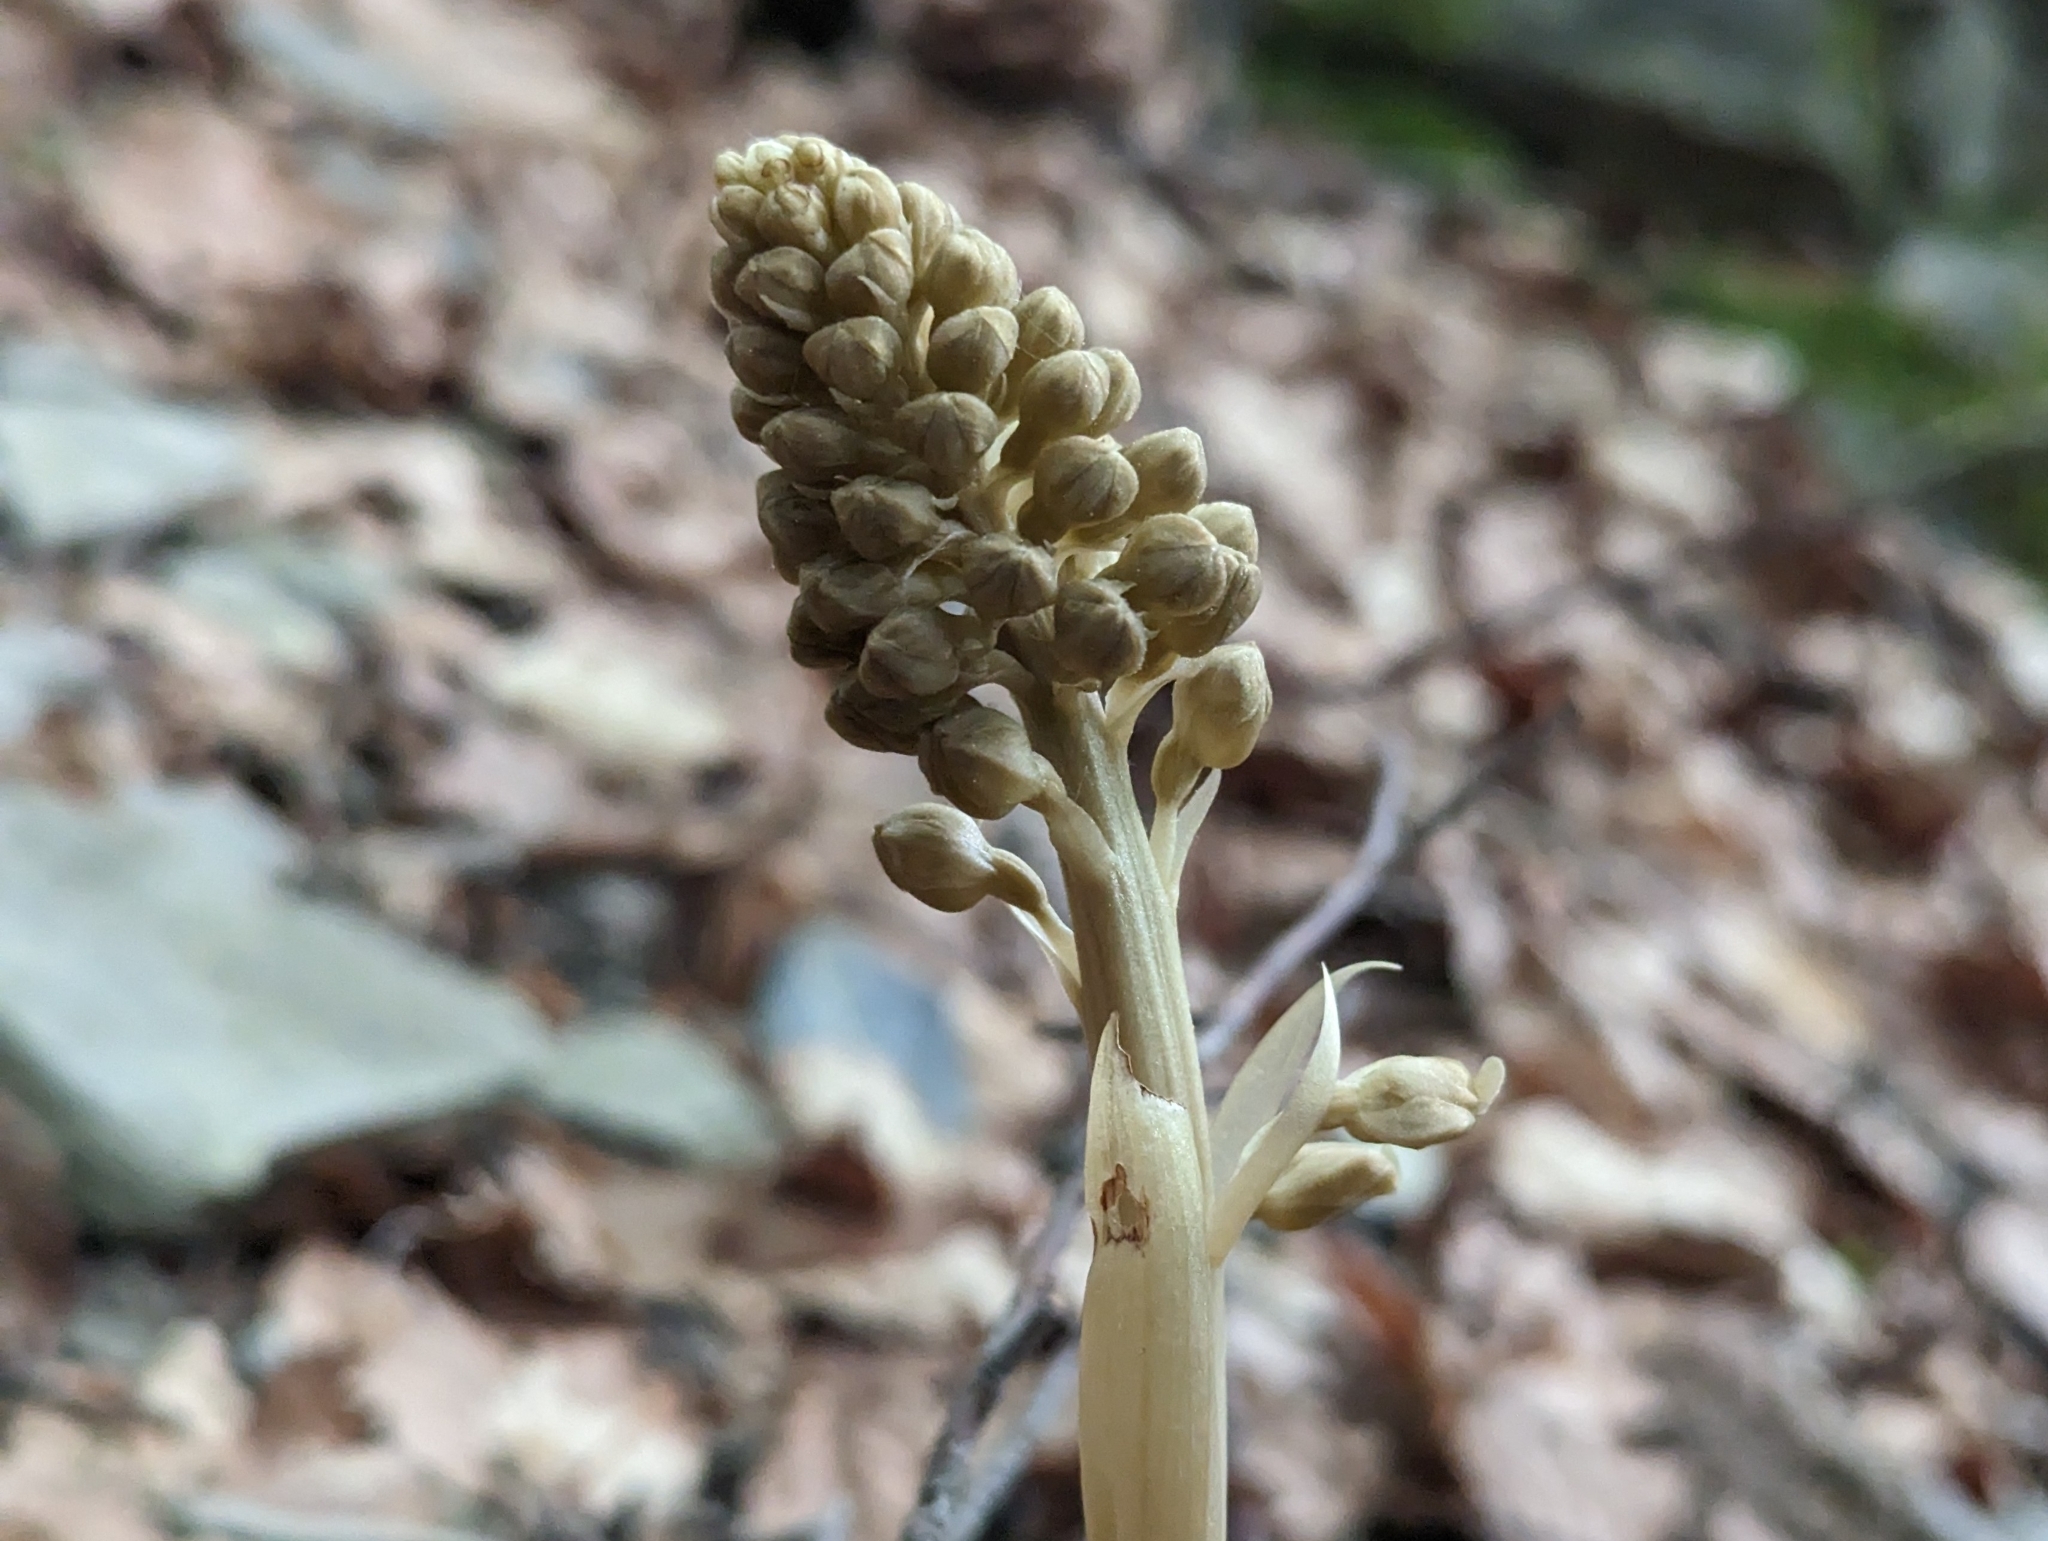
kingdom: Plantae
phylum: Tracheophyta
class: Liliopsida
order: Asparagales
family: Orchidaceae
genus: Neottia
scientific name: Neottia nidus-avis
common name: Bird's-nest orchid
